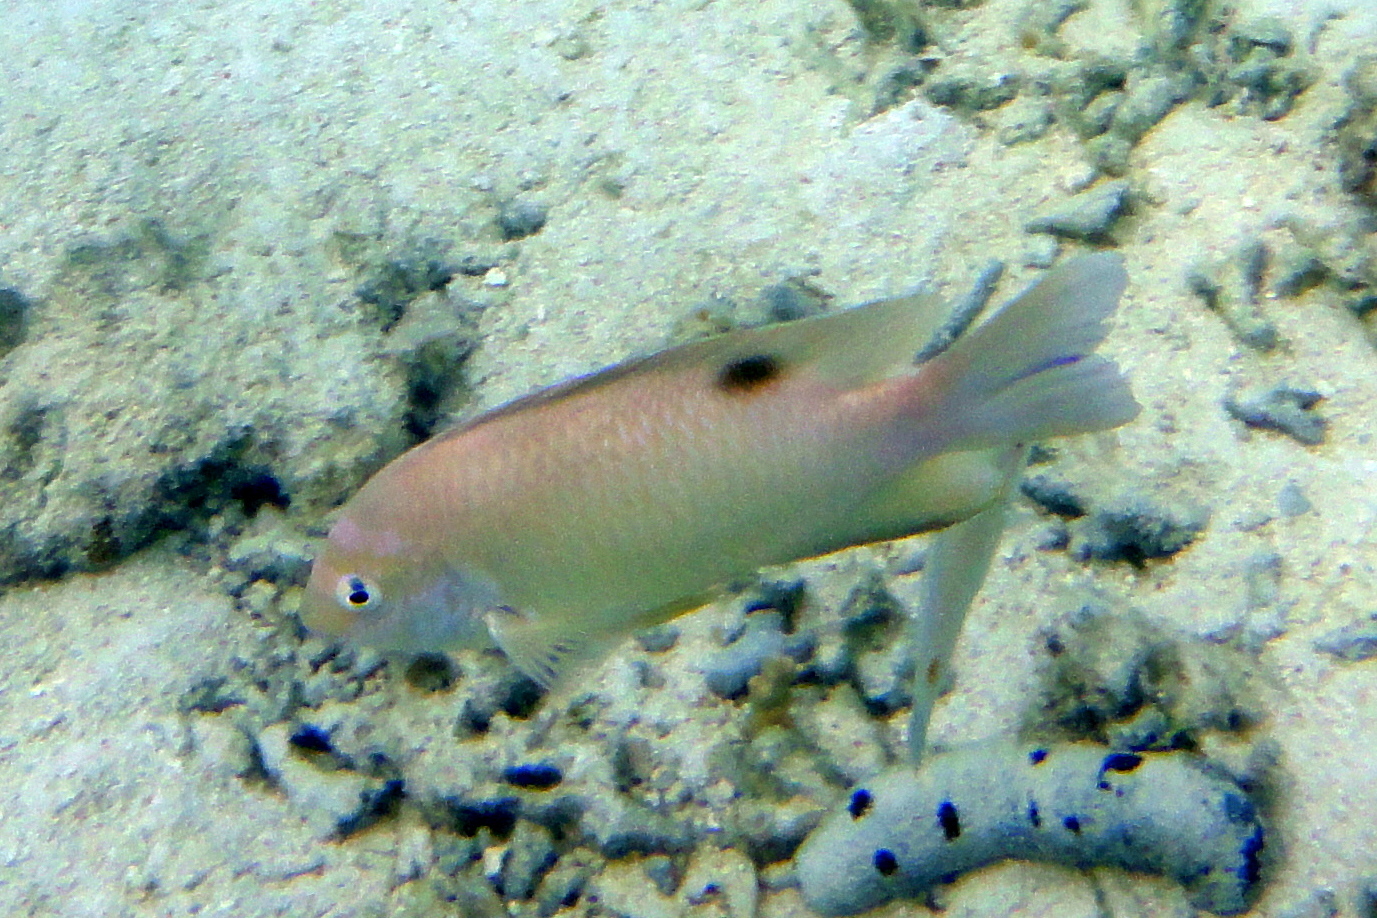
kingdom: Animalia
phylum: Chordata
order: Perciformes
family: Pomacentridae
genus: Dischistodus
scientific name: Dischistodus perspicillatus
